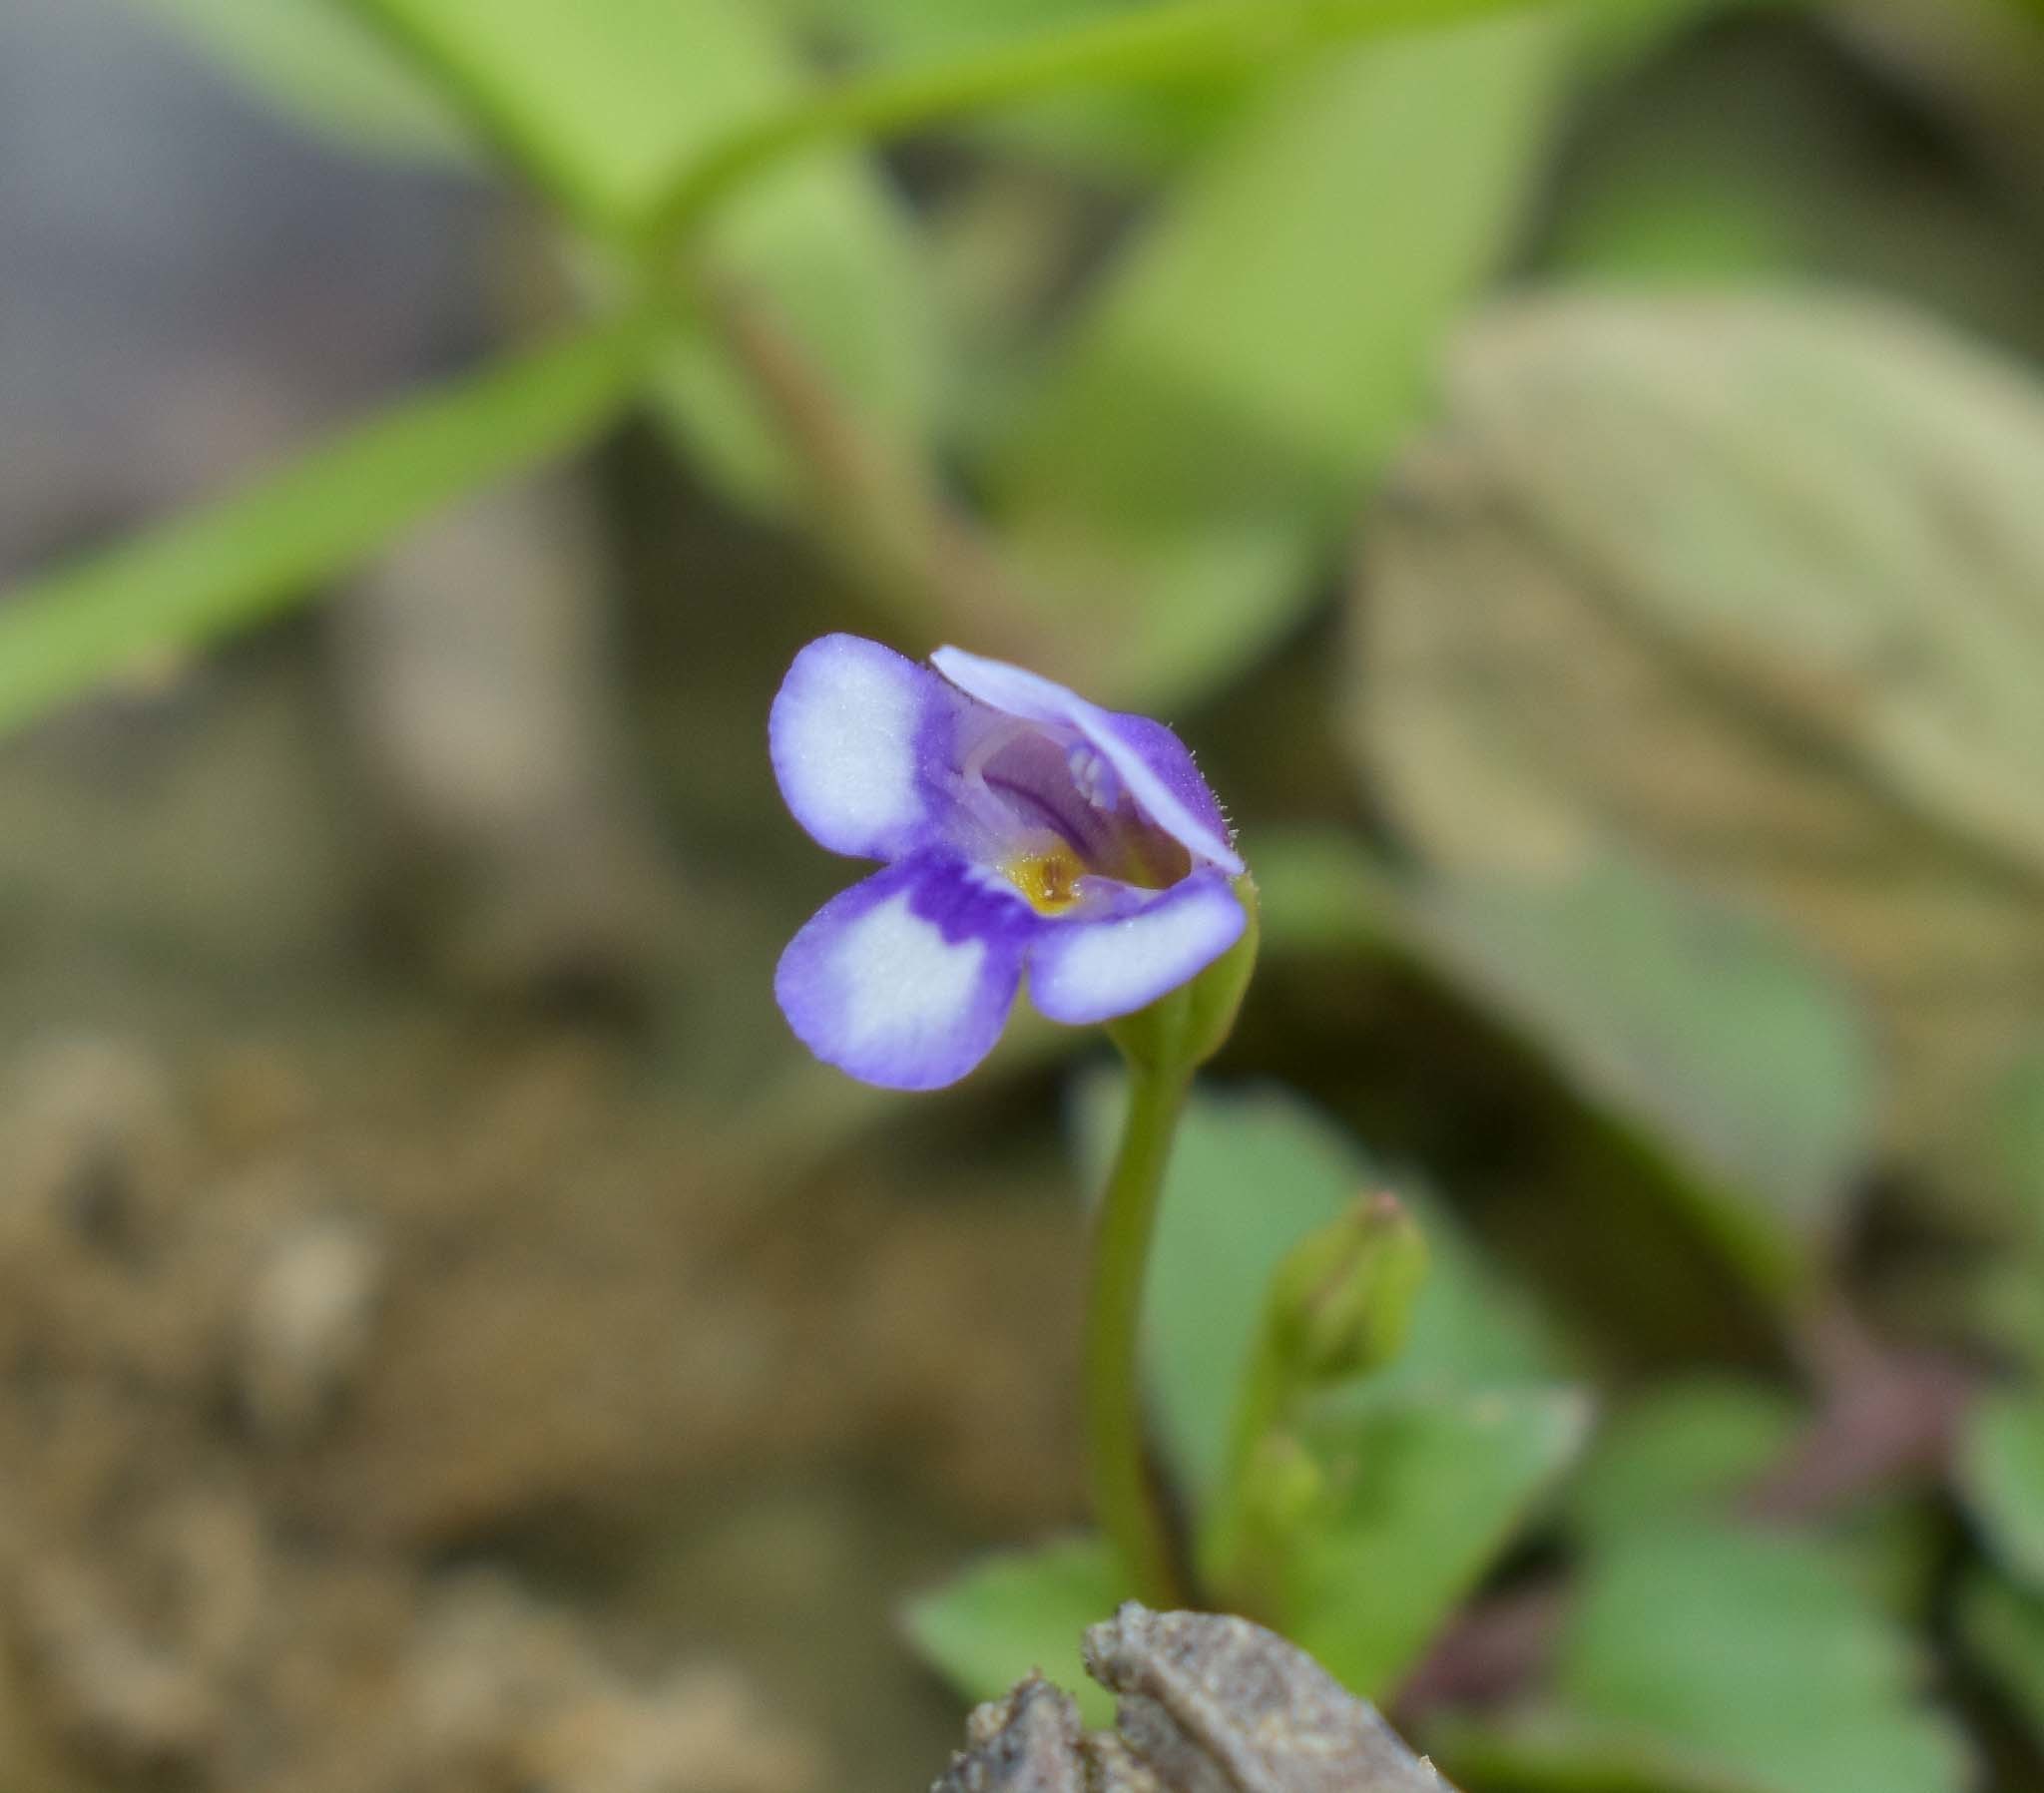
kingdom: Plantae
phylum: Tracheophyta
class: Magnoliopsida
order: Lamiales
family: Linderniaceae
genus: Torenia
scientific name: Torenia crustacea
